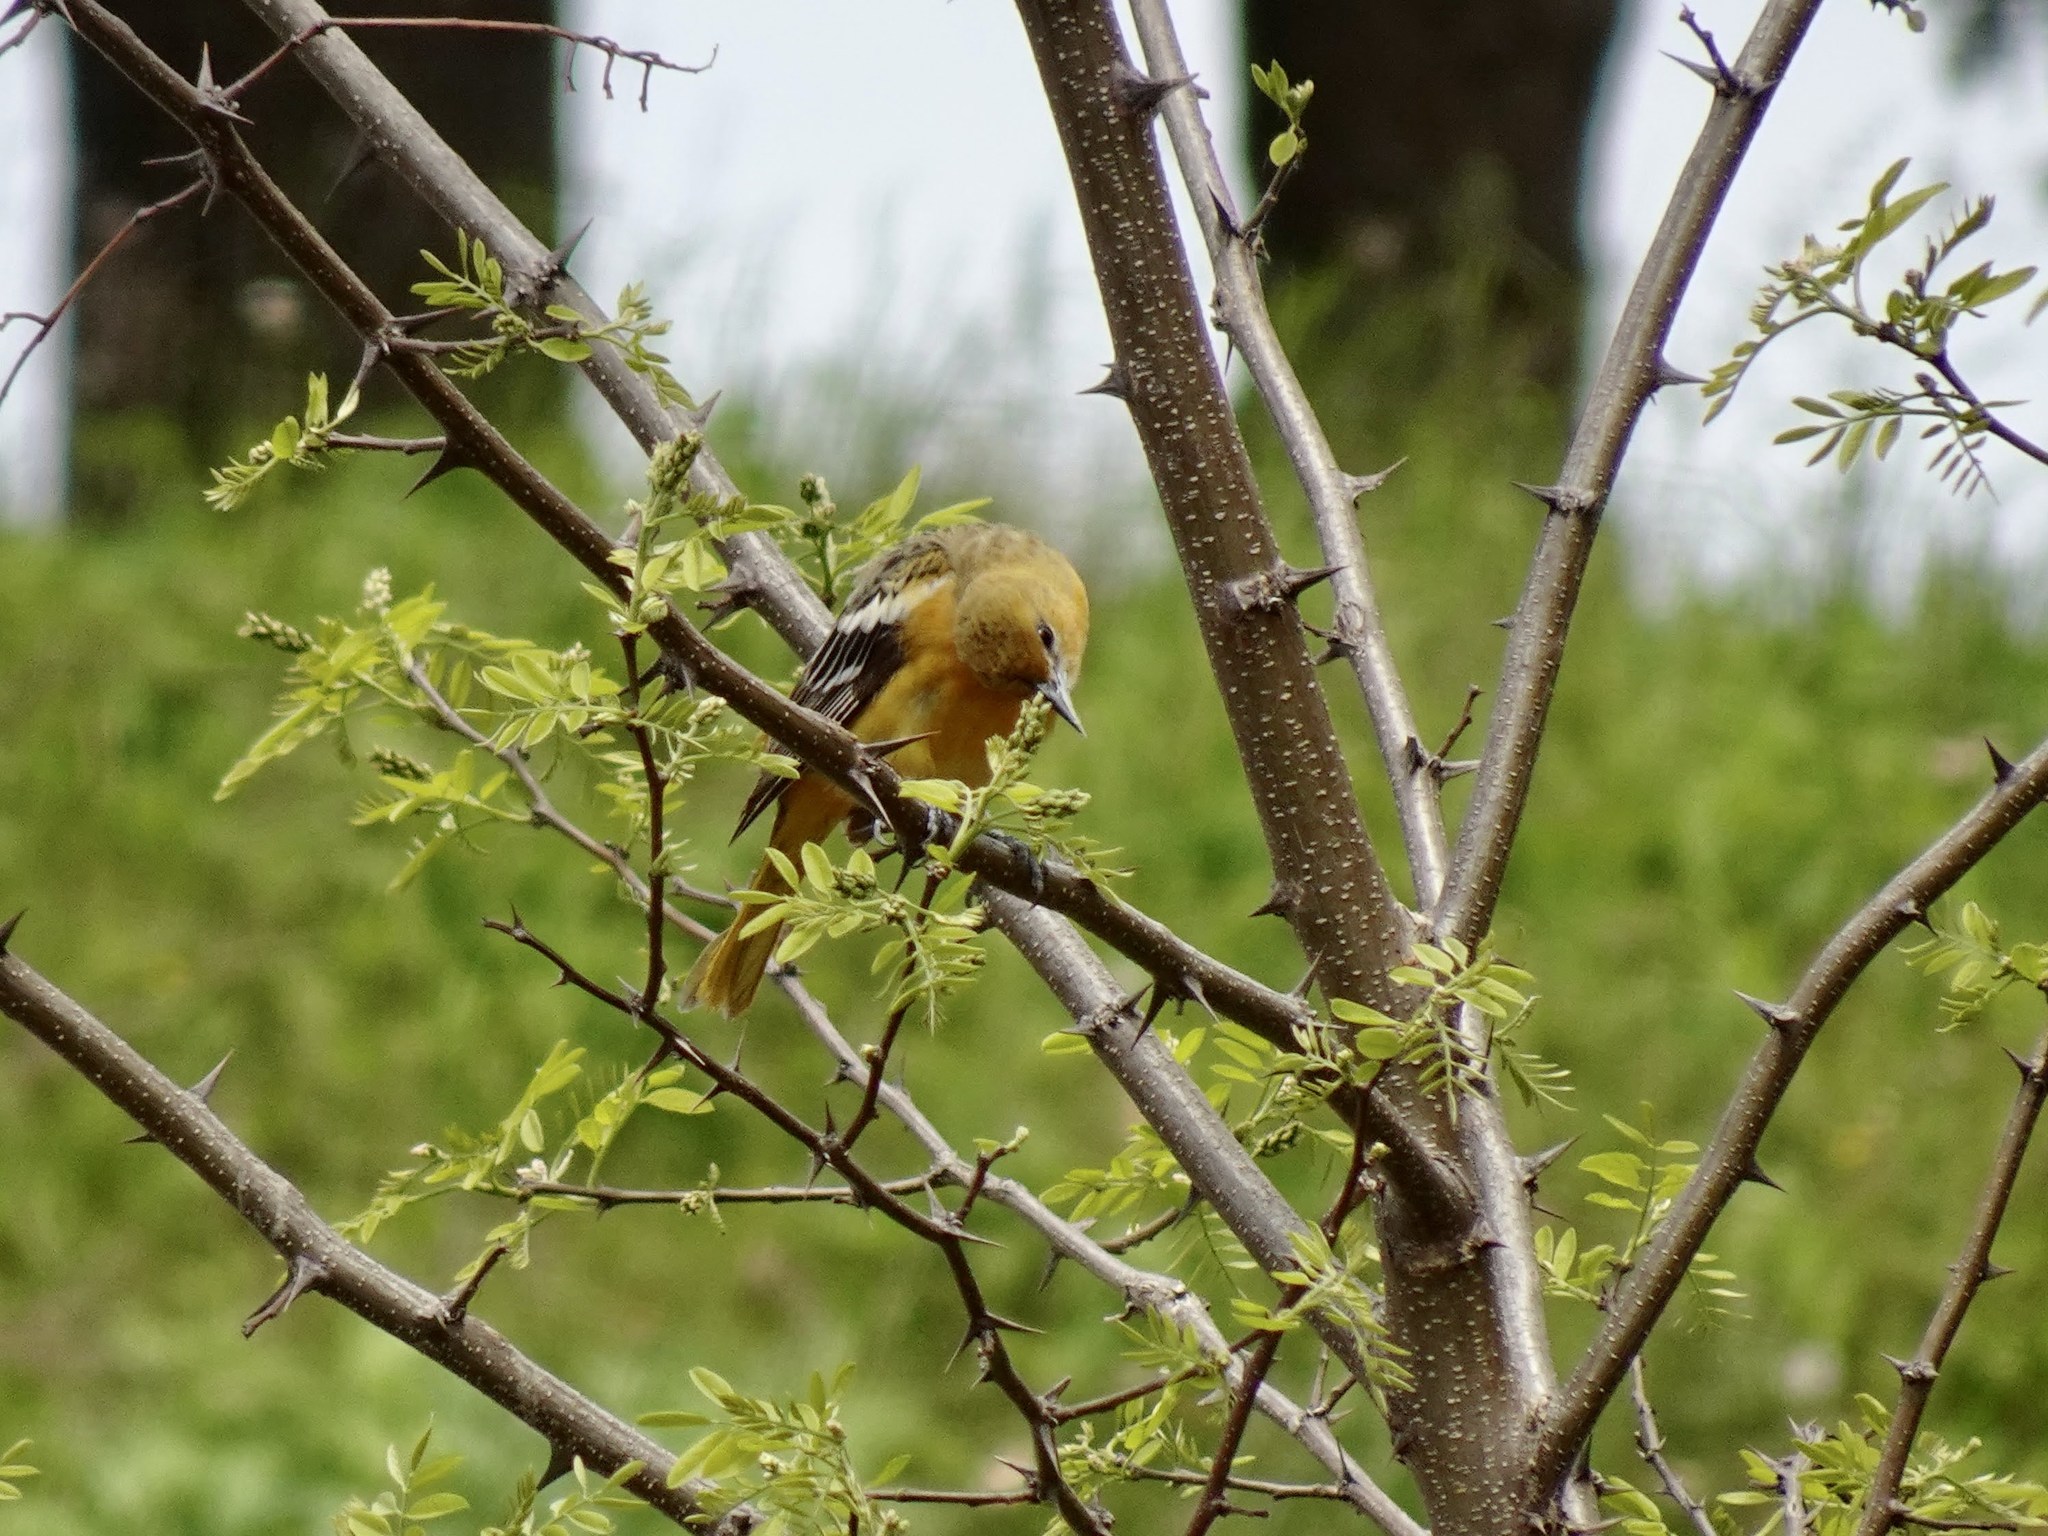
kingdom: Animalia
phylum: Chordata
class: Aves
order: Passeriformes
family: Icteridae
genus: Icterus
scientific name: Icterus galbula
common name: Baltimore oriole
